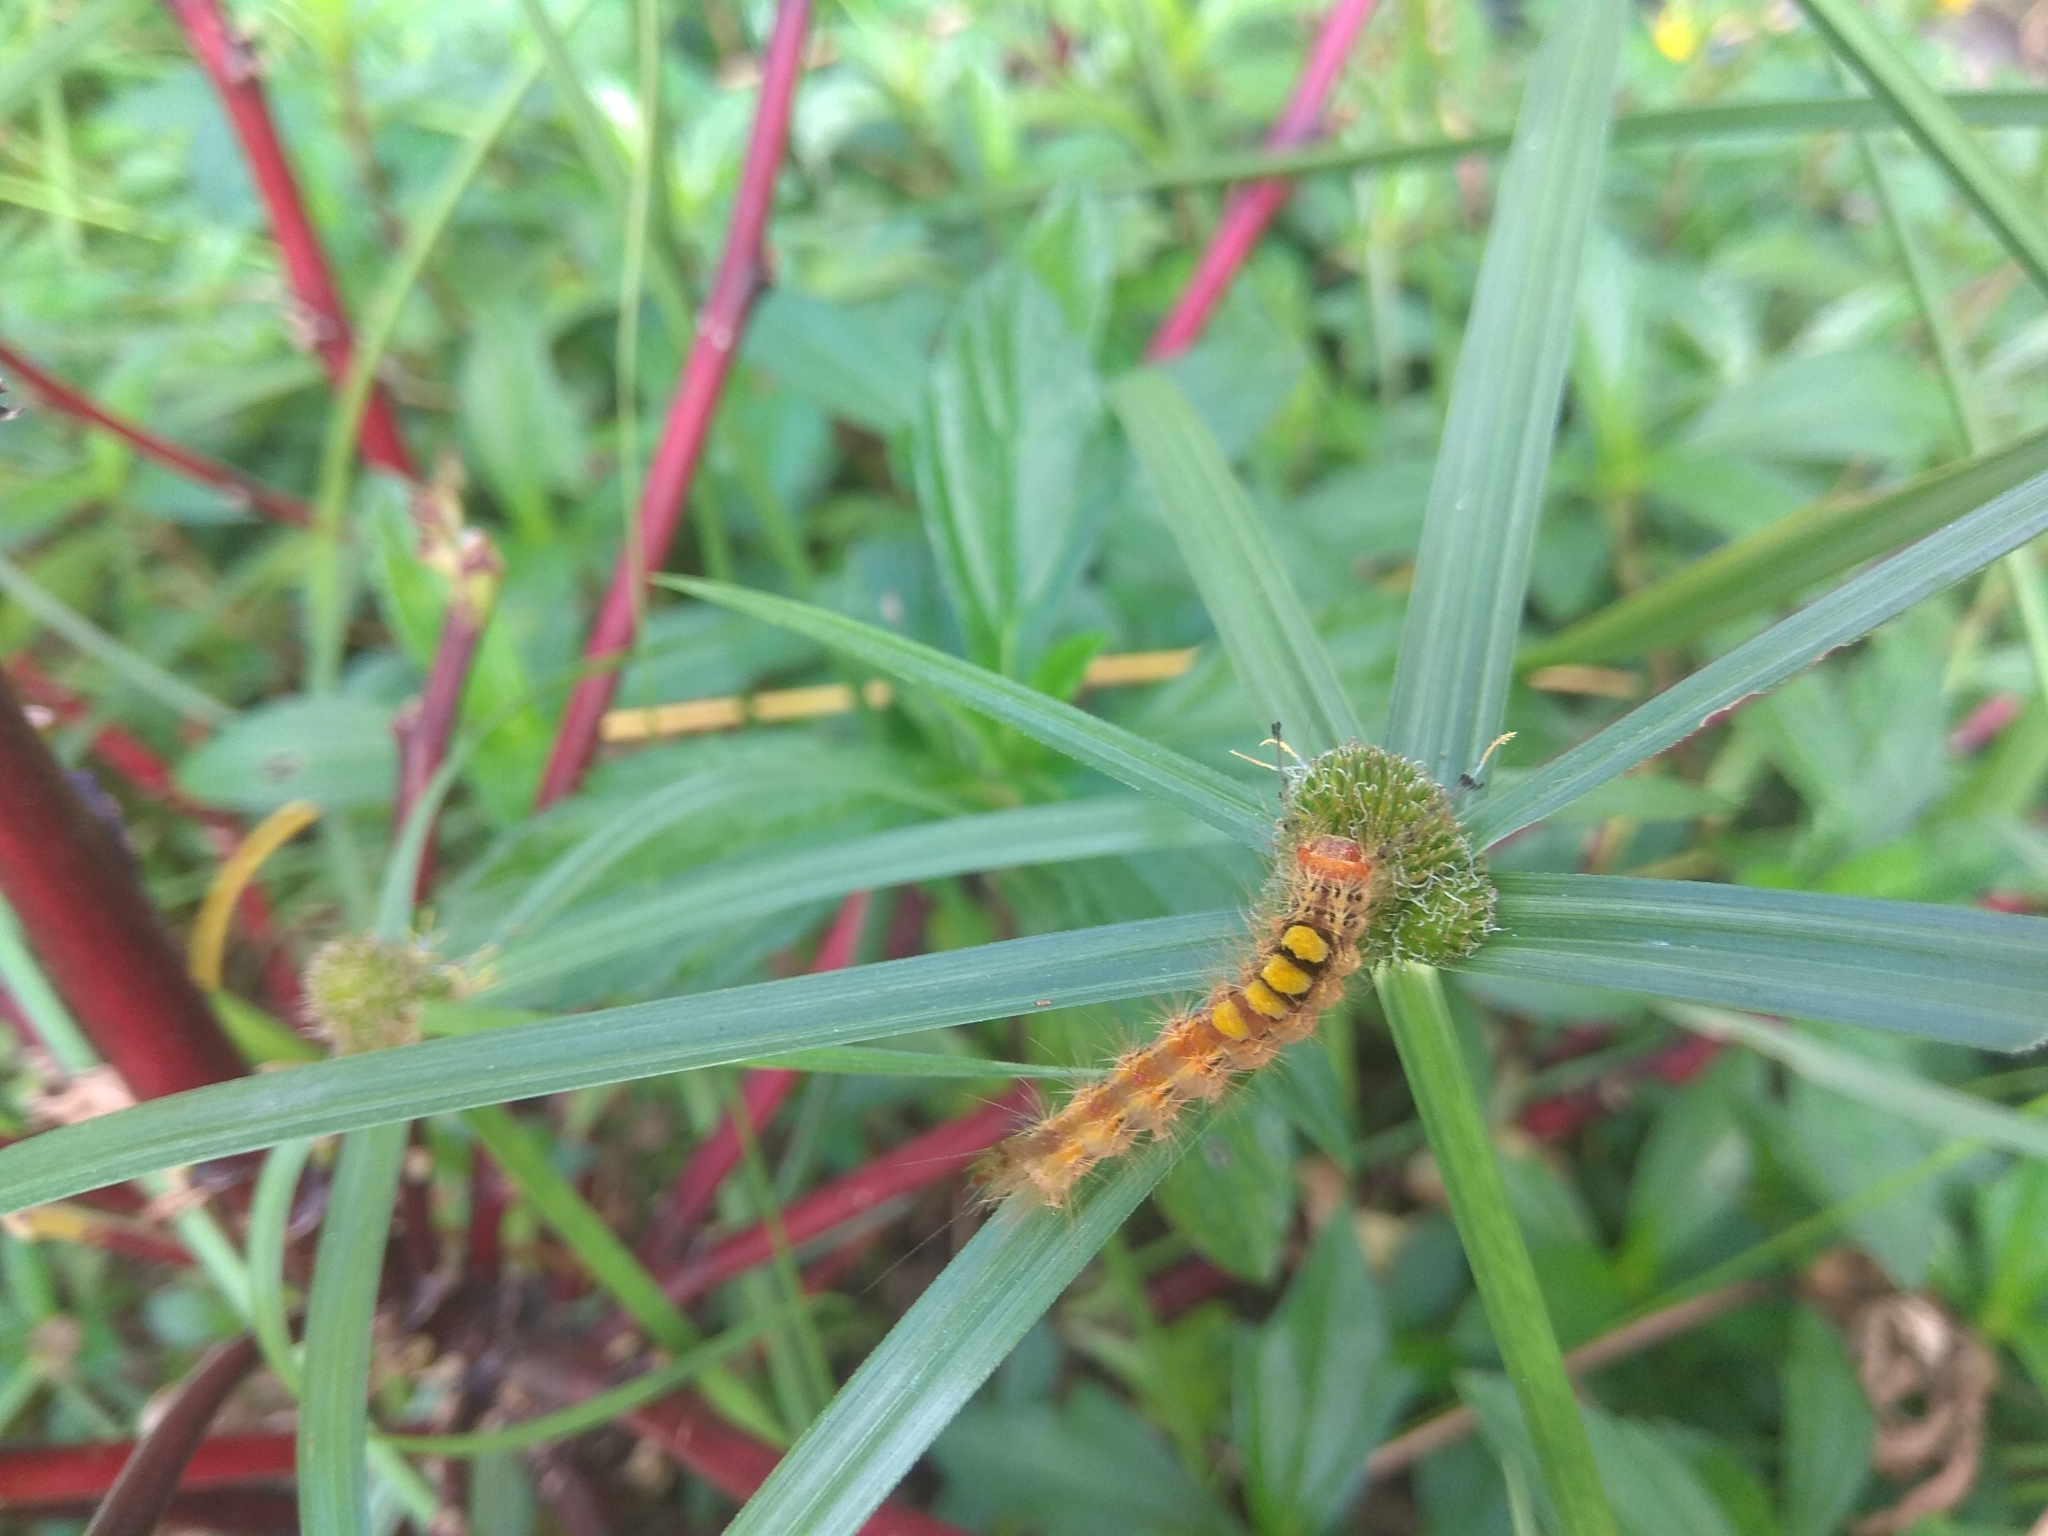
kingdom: Animalia
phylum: Arthropoda
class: Insecta
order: Lepidoptera
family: Erebidae
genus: Orgyia
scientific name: Orgyia postica
